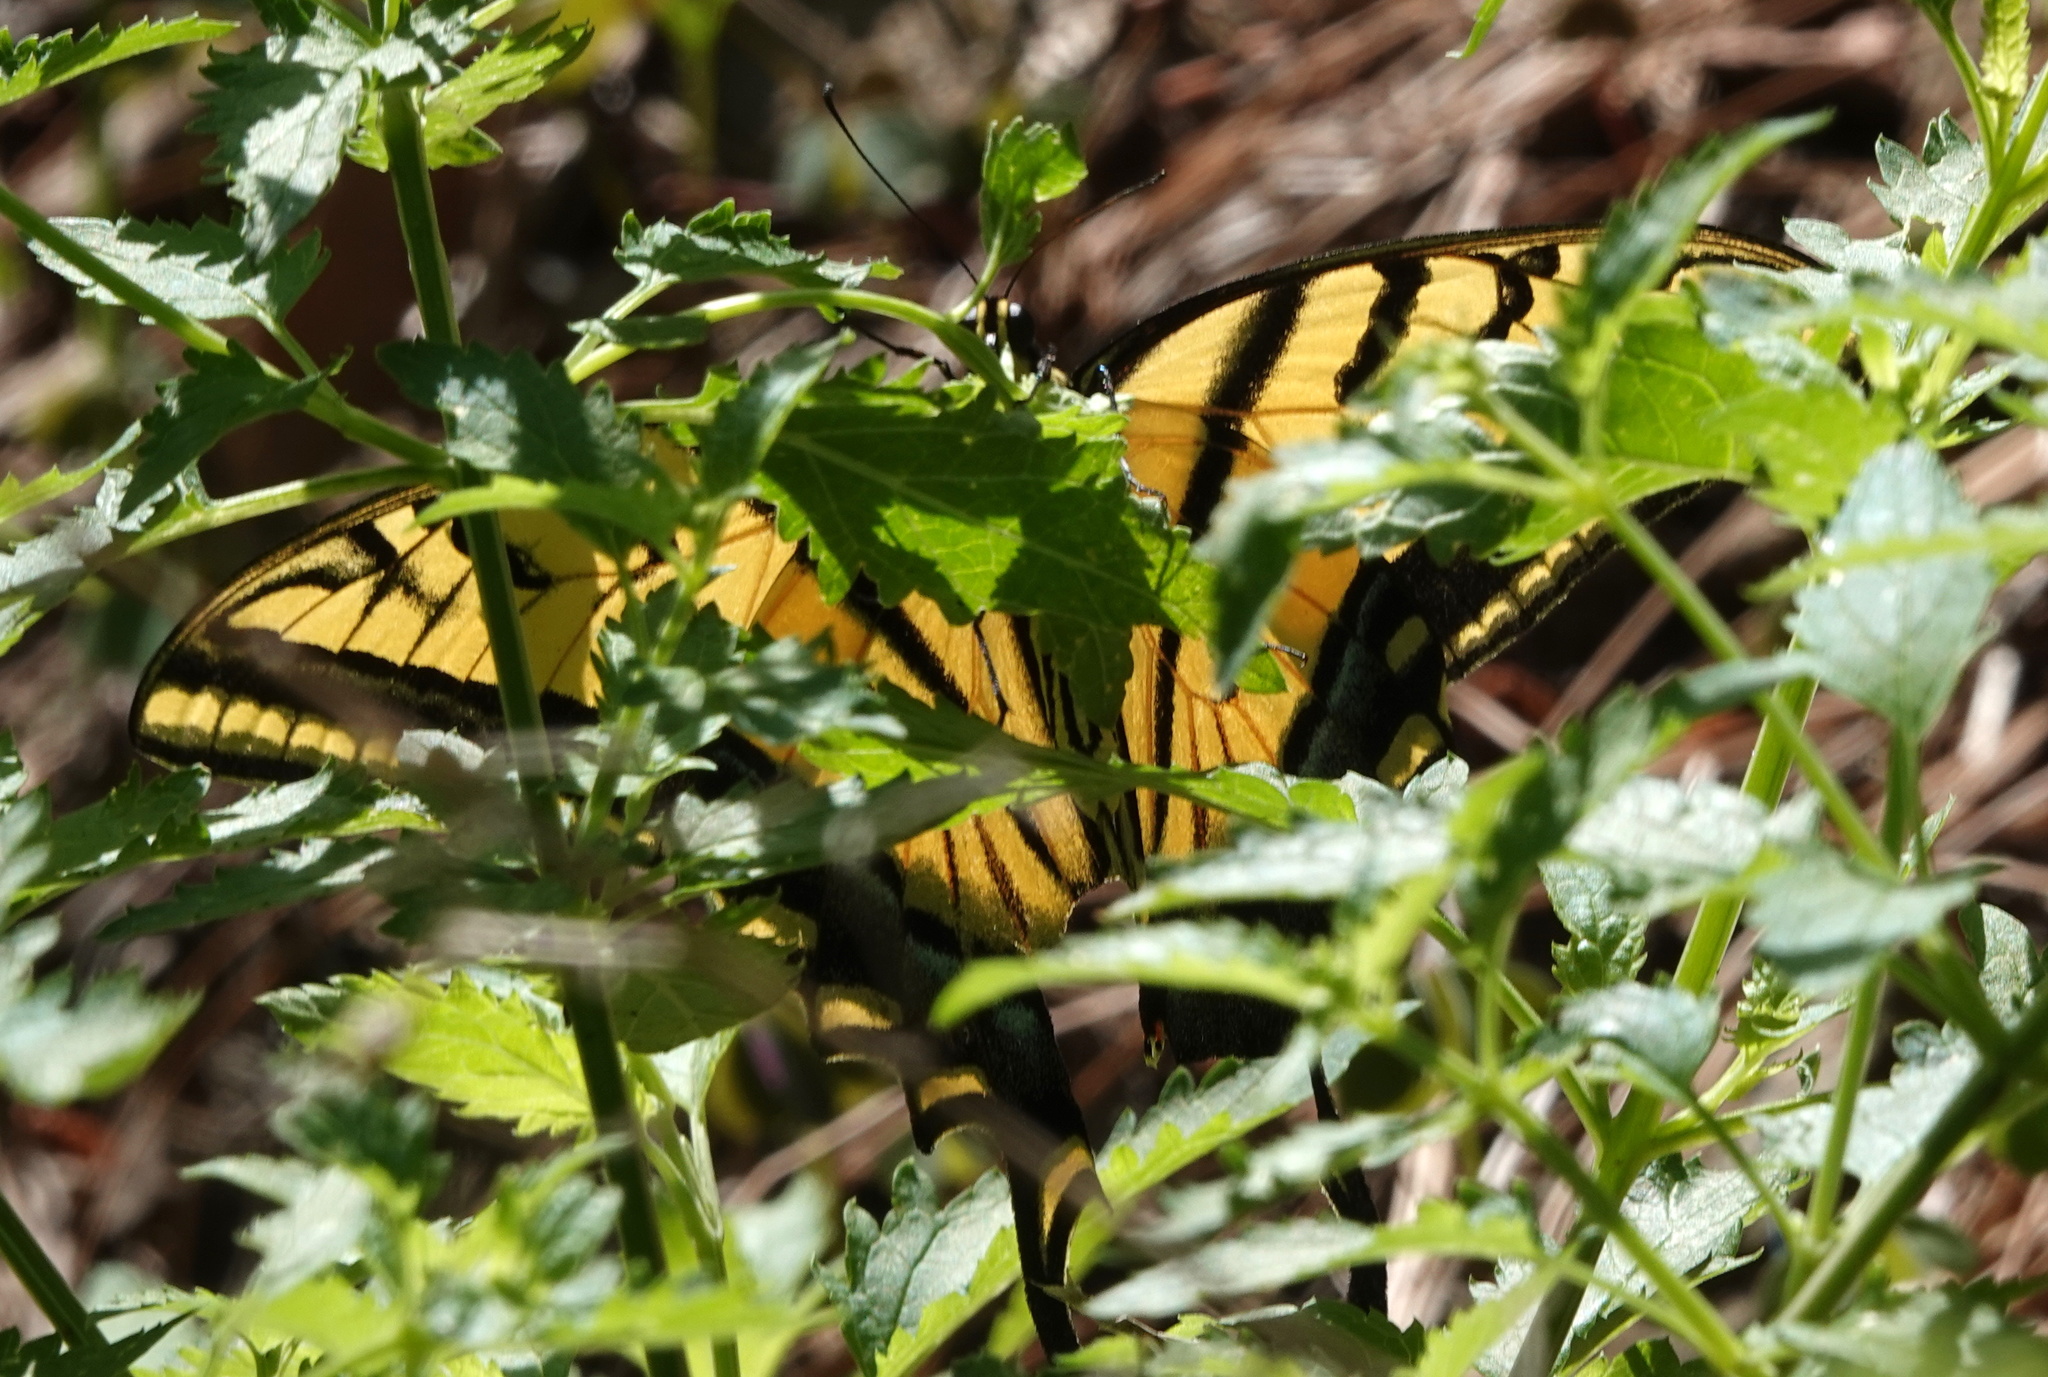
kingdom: Animalia
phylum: Arthropoda
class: Insecta
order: Lepidoptera
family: Papilionidae
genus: Papilio
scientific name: Papilio multicaudata
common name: Two-tailed tiger swallowtail
